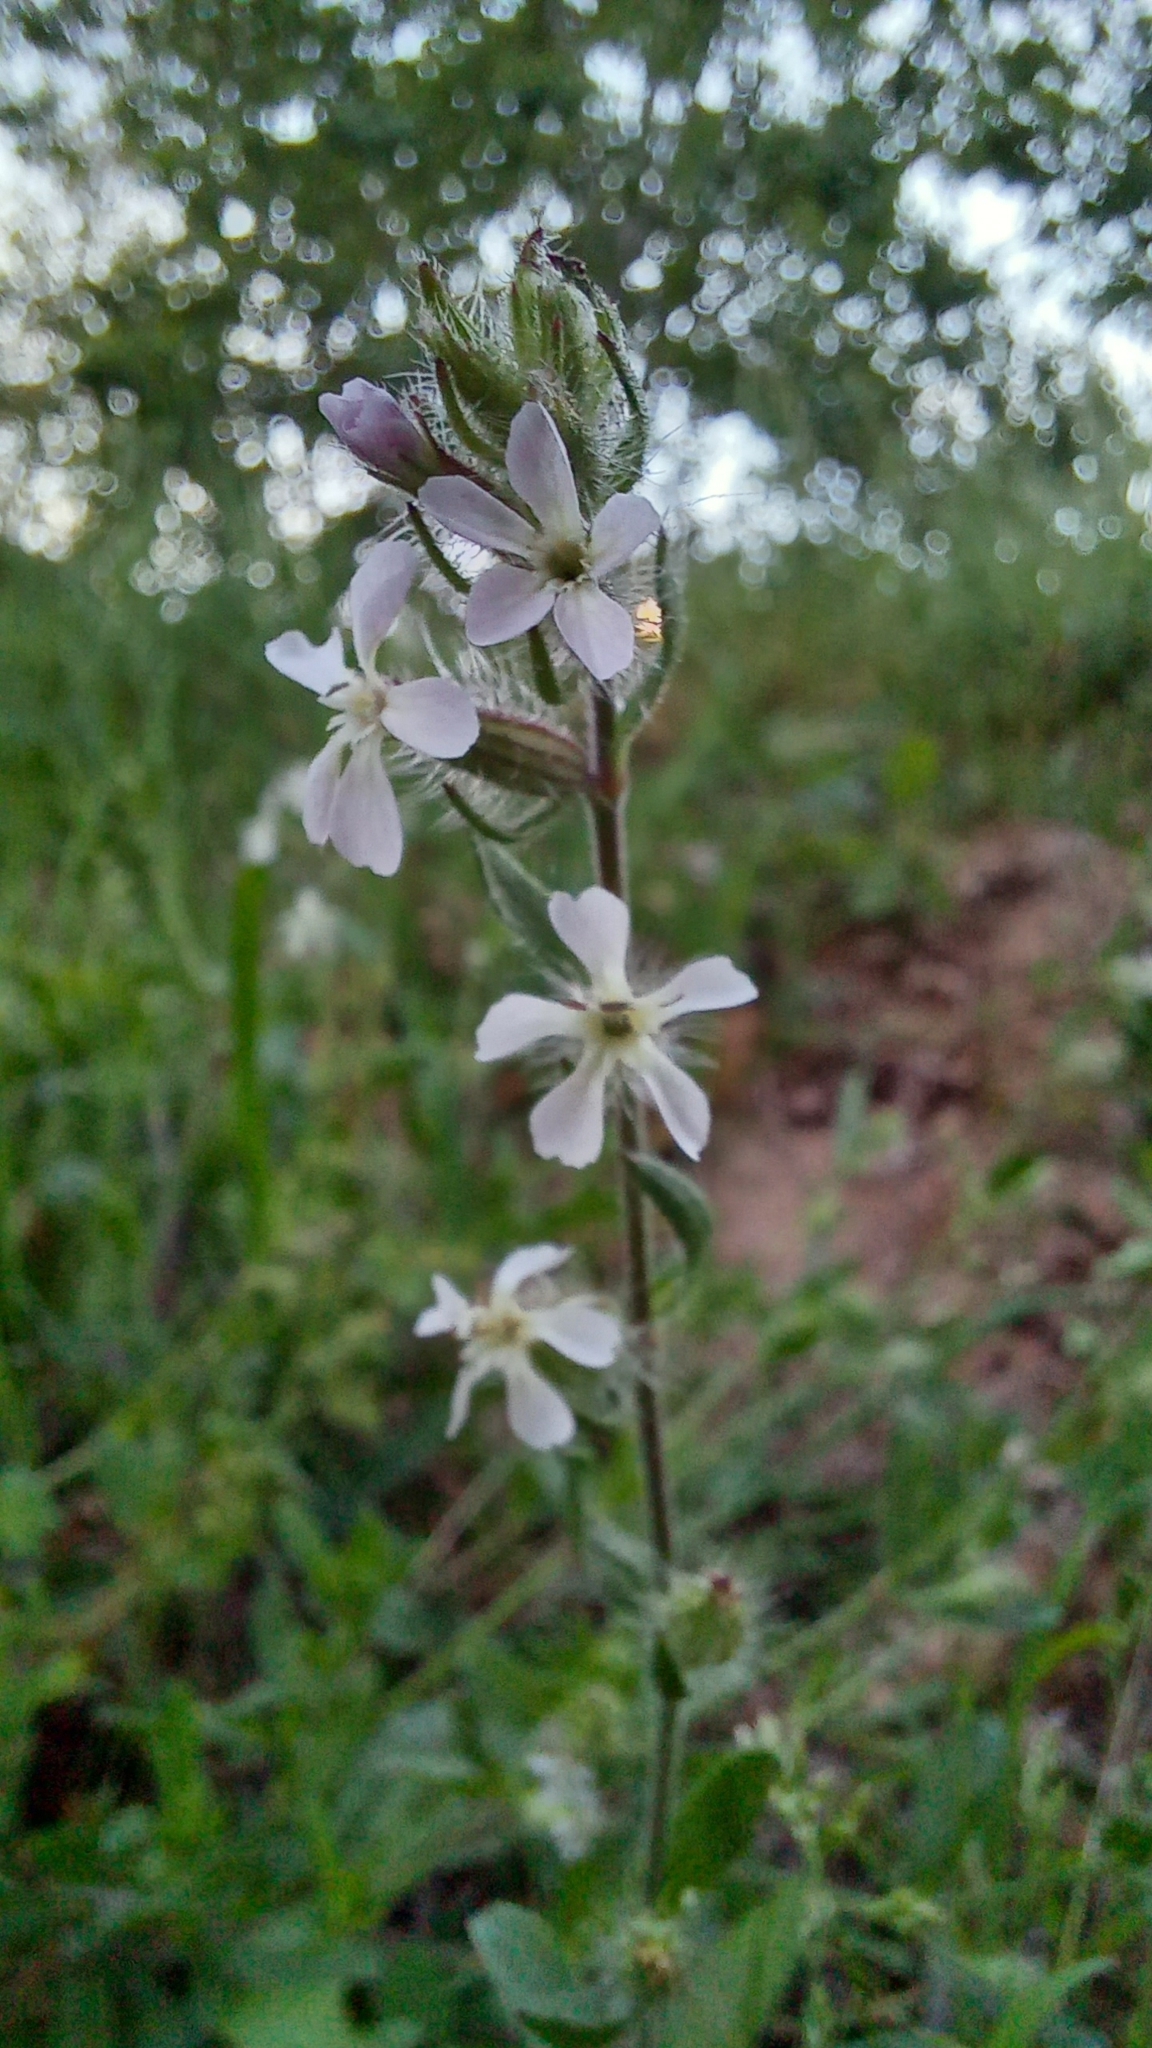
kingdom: Plantae
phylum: Tracheophyta
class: Magnoliopsida
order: Caryophyllales
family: Caryophyllaceae
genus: Silene
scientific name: Silene gallica
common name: Small-flowered catchfly
